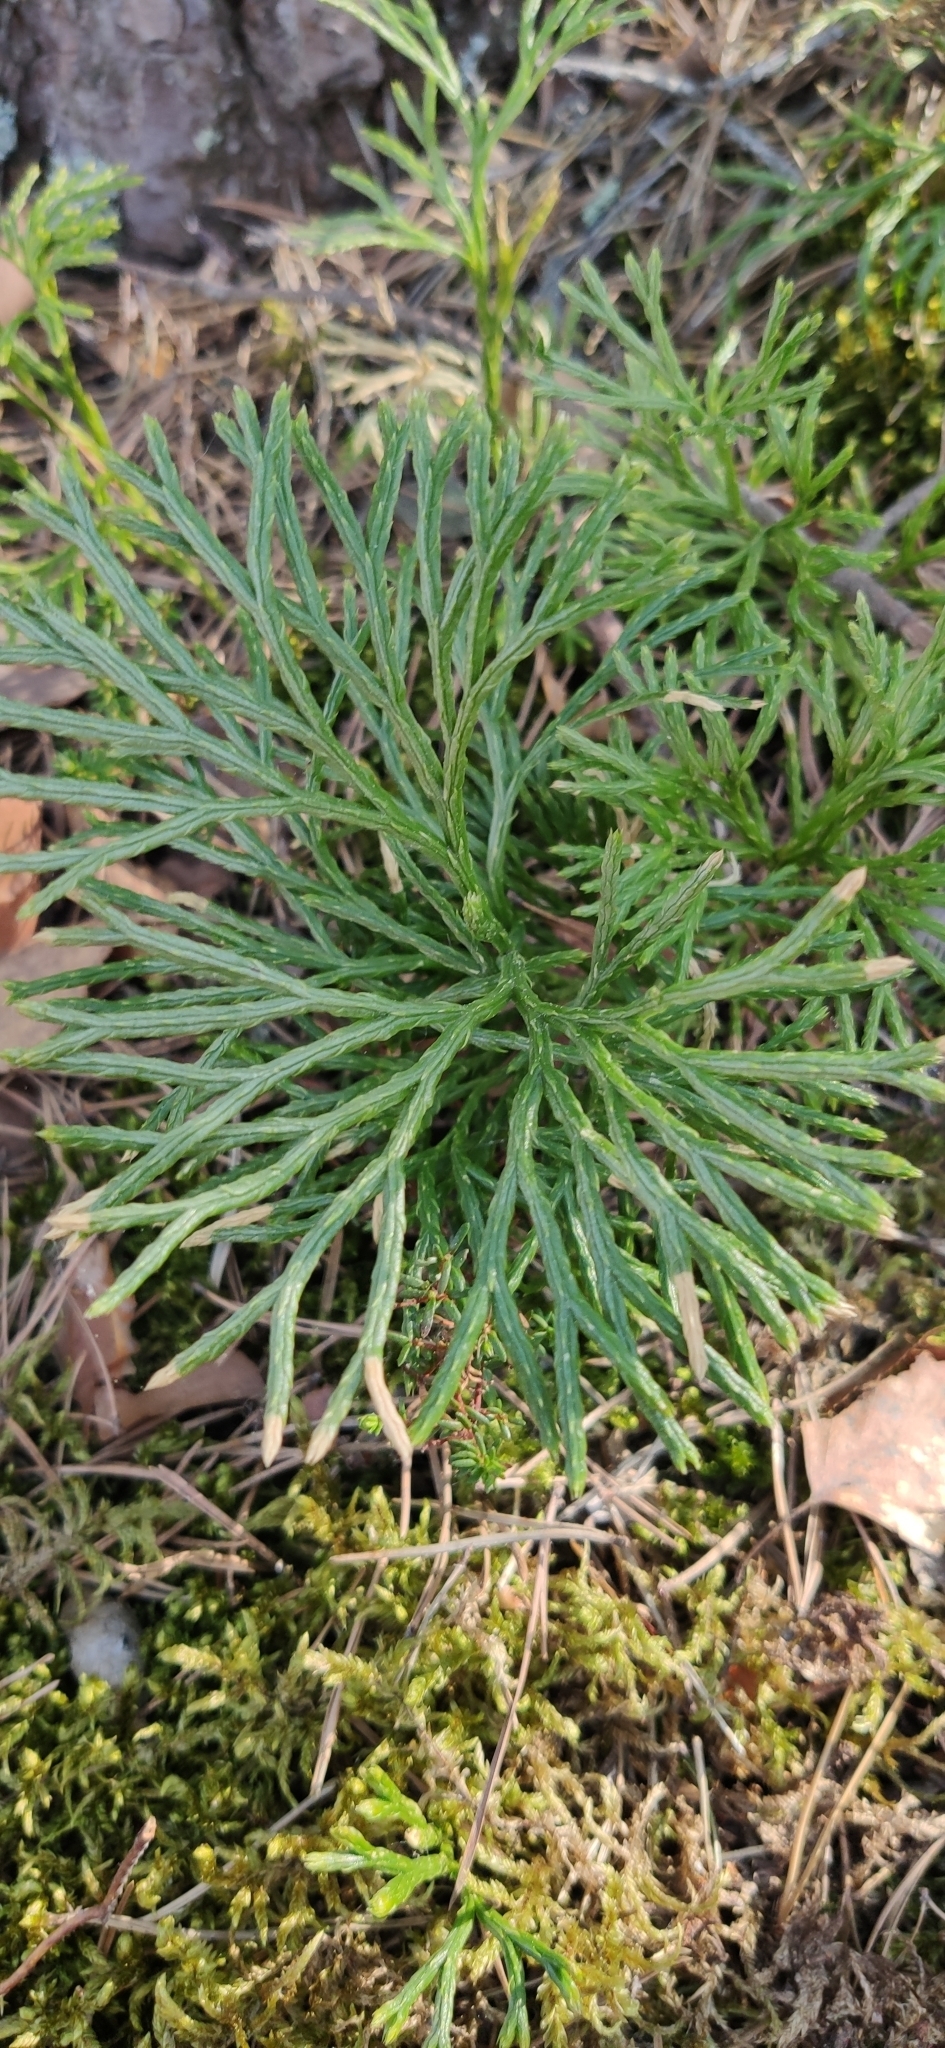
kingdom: Plantae
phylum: Tracheophyta
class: Lycopodiopsida
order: Lycopodiales
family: Lycopodiaceae
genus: Diphasiastrum
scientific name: Diphasiastrum complanatum
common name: Northern running-pine
